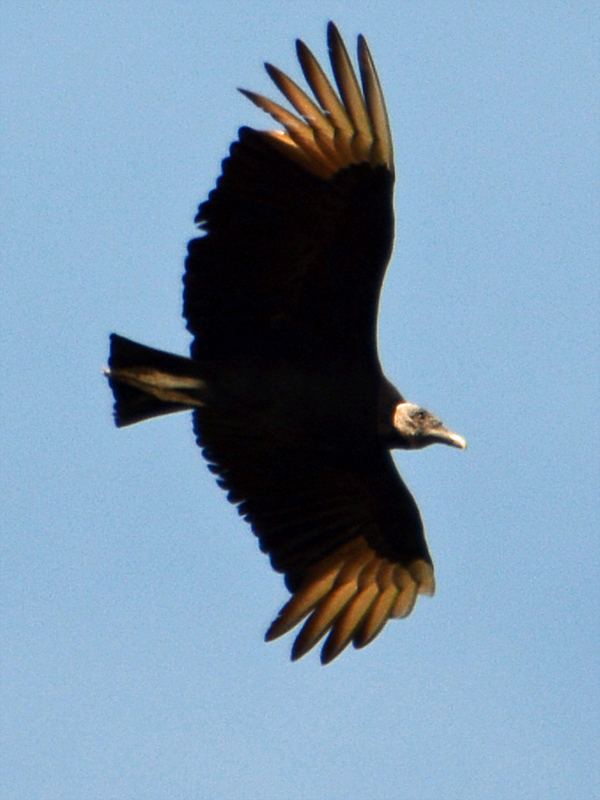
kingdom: Animalia
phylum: Chordata
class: Aves
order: Accipitriformes
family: Cathartidae
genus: Coragyps
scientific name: Coragyps atratus
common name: Black vulture
